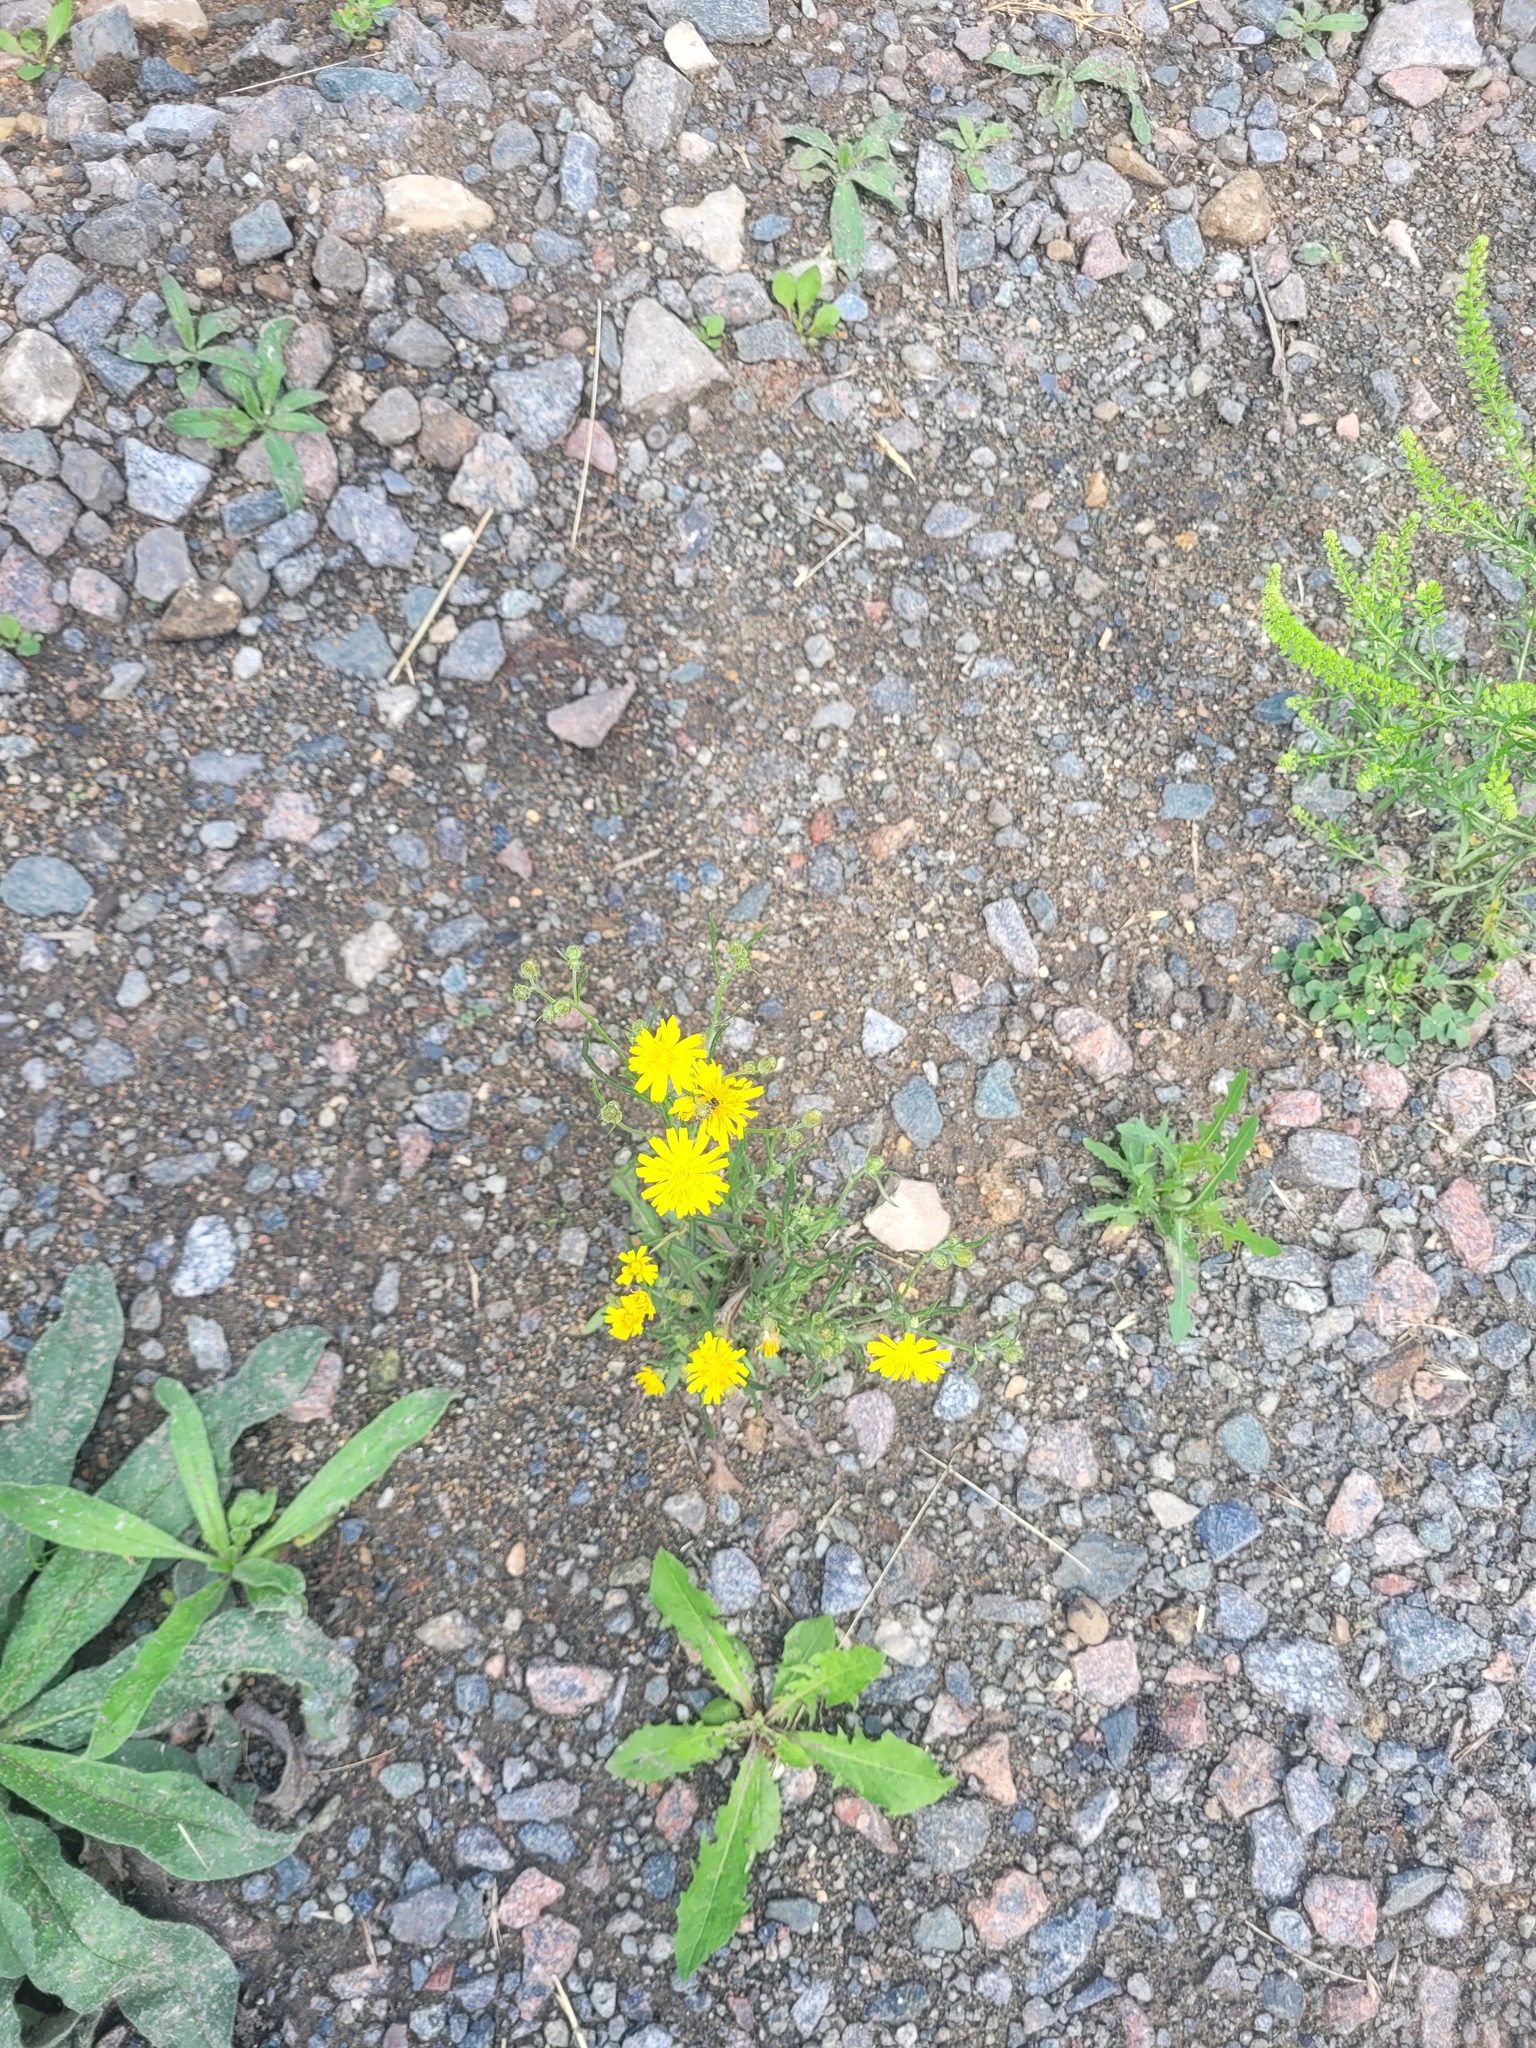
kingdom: Plantae
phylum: Tracheophyta
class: Magnoliopsida
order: Asterales
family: Asteraceae
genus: Crepis
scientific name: Crepis tectorum
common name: Narrow-leaved hawk's-beard
